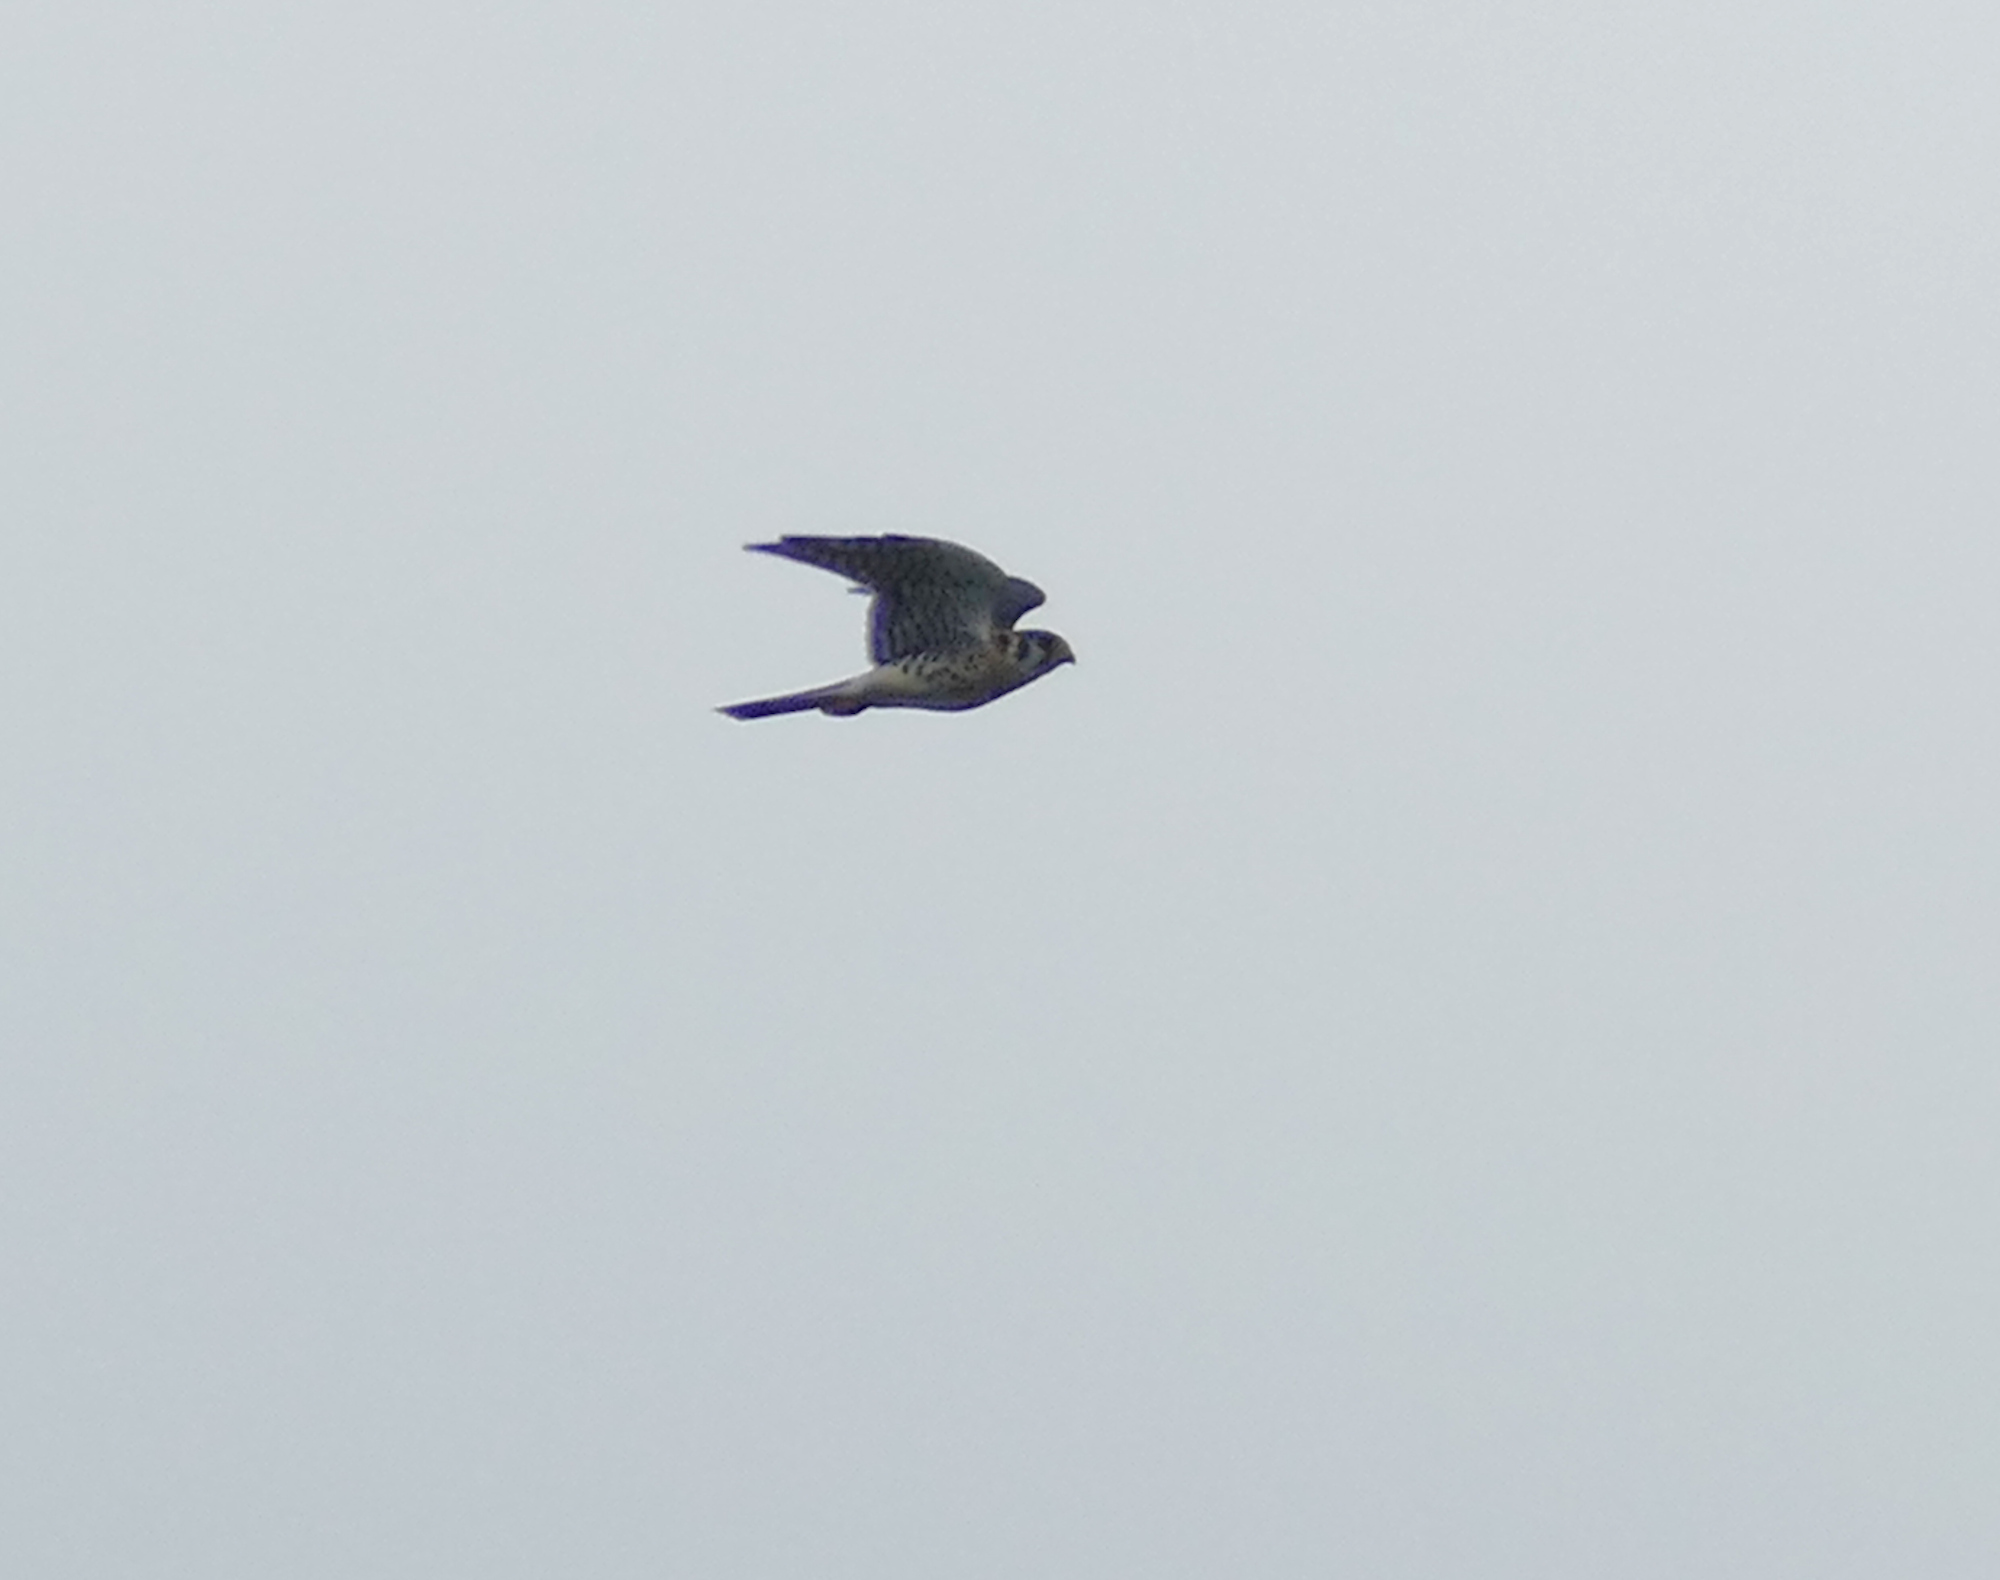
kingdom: Animalia
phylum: Chordata
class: Aves
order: Falconiformes
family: Falconidae
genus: Falco
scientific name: Falco sparverius
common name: American kestrel
